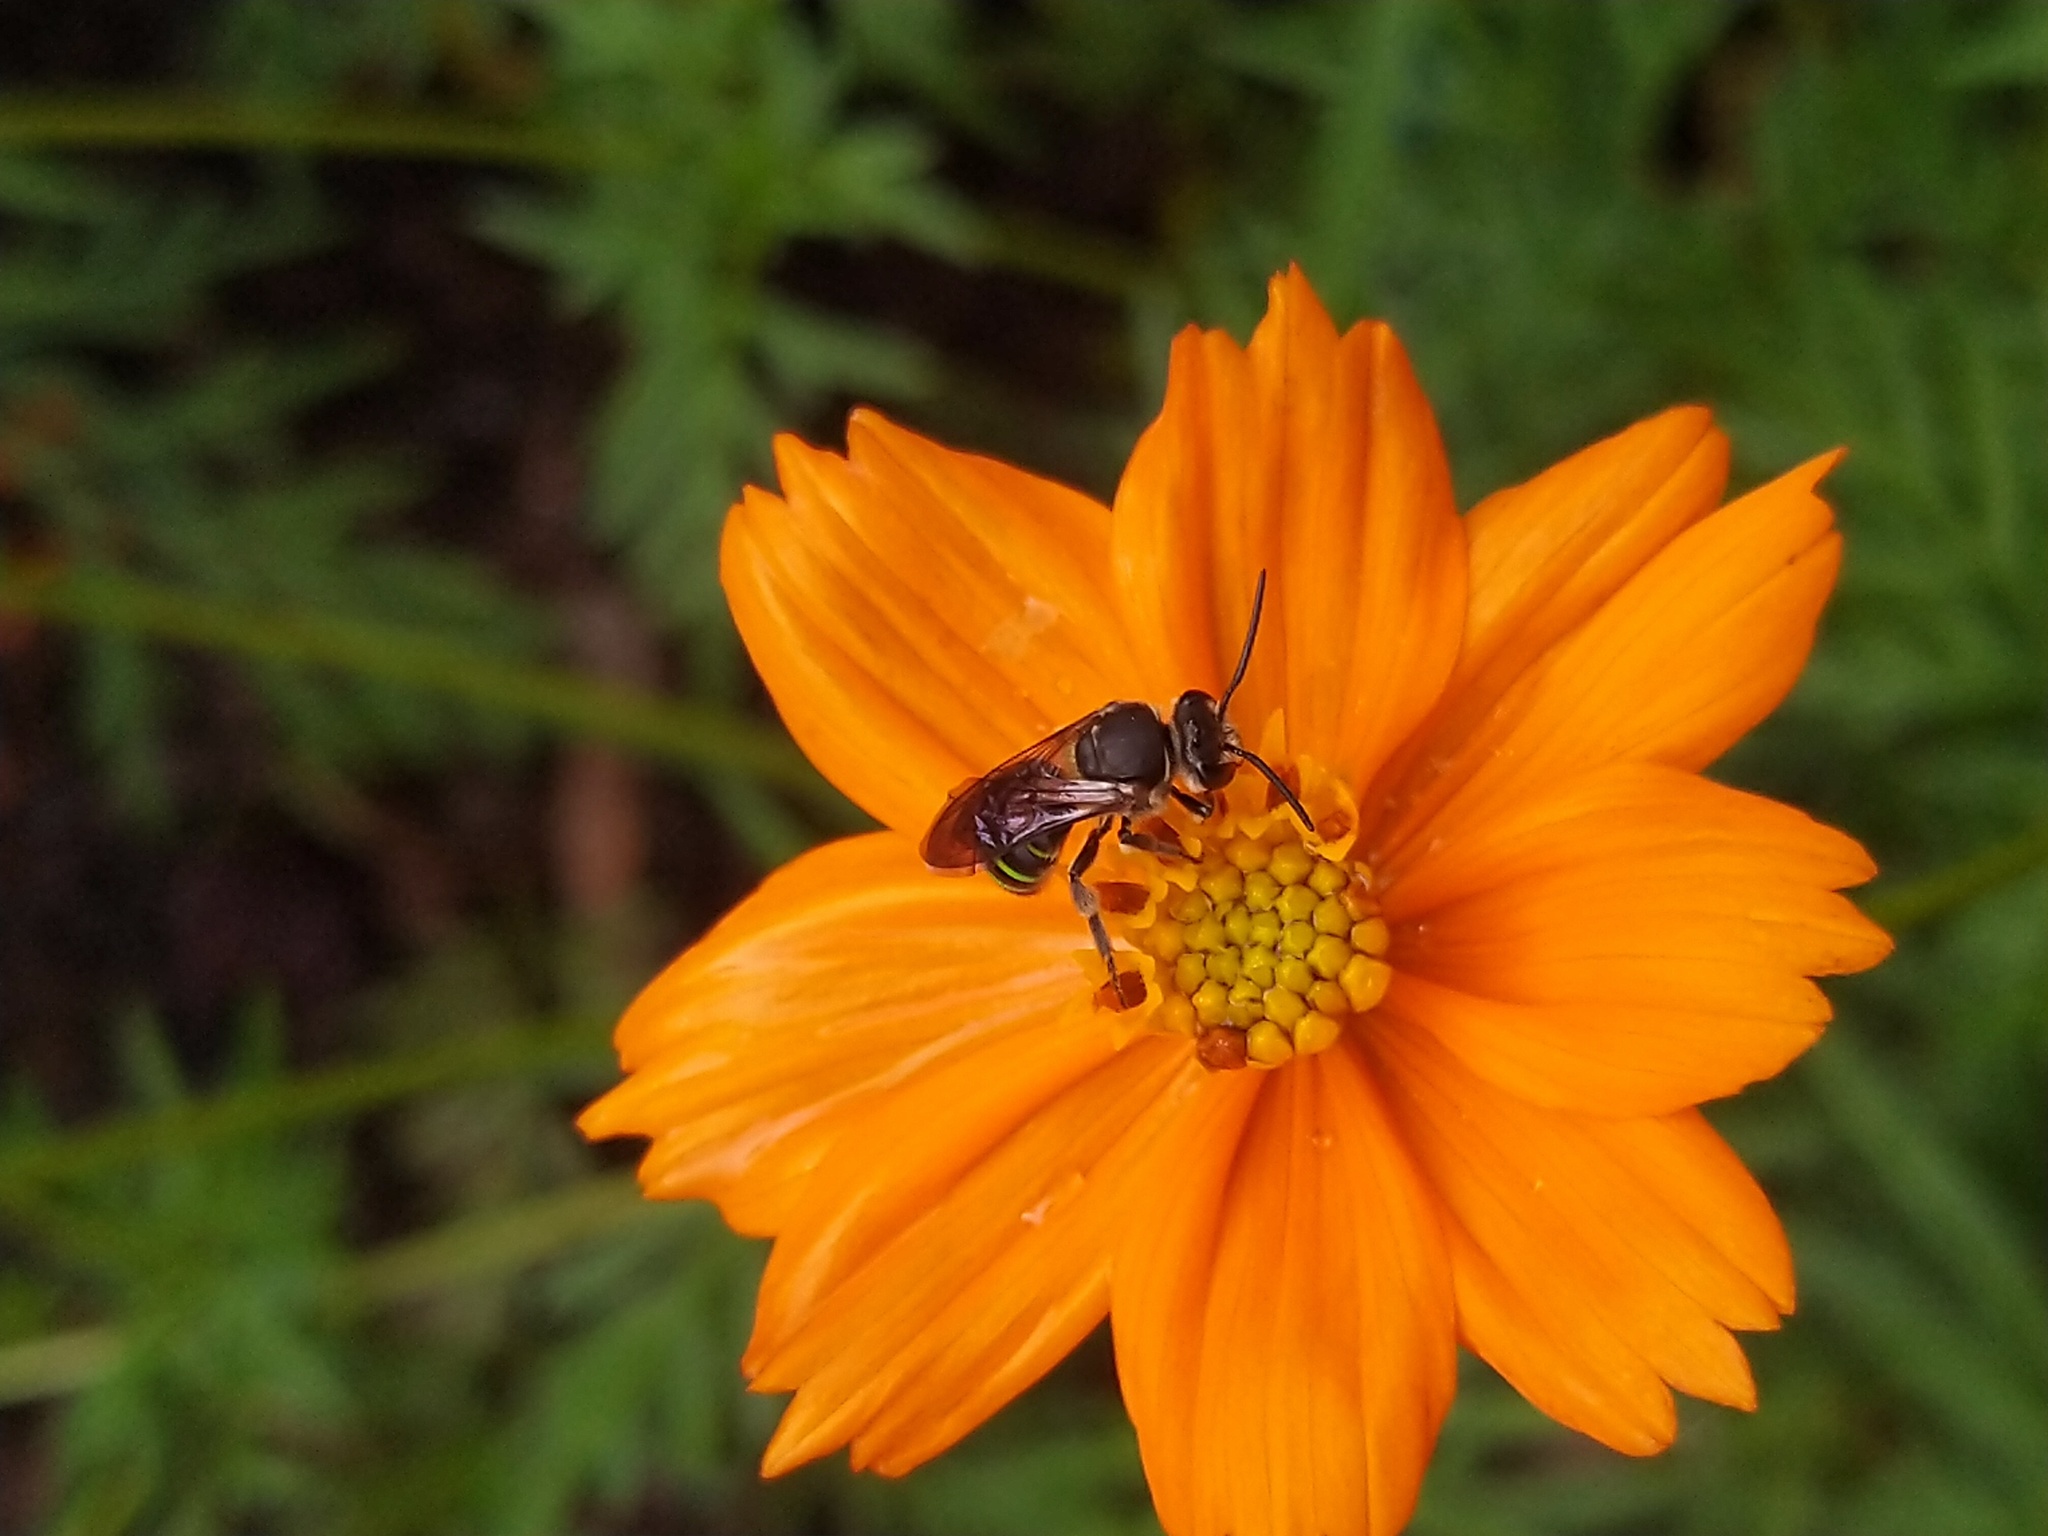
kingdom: Animalia
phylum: Arthropoda
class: Insecta
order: Hymenoptera
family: Halictidae
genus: Nomia
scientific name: Nomia strigata
